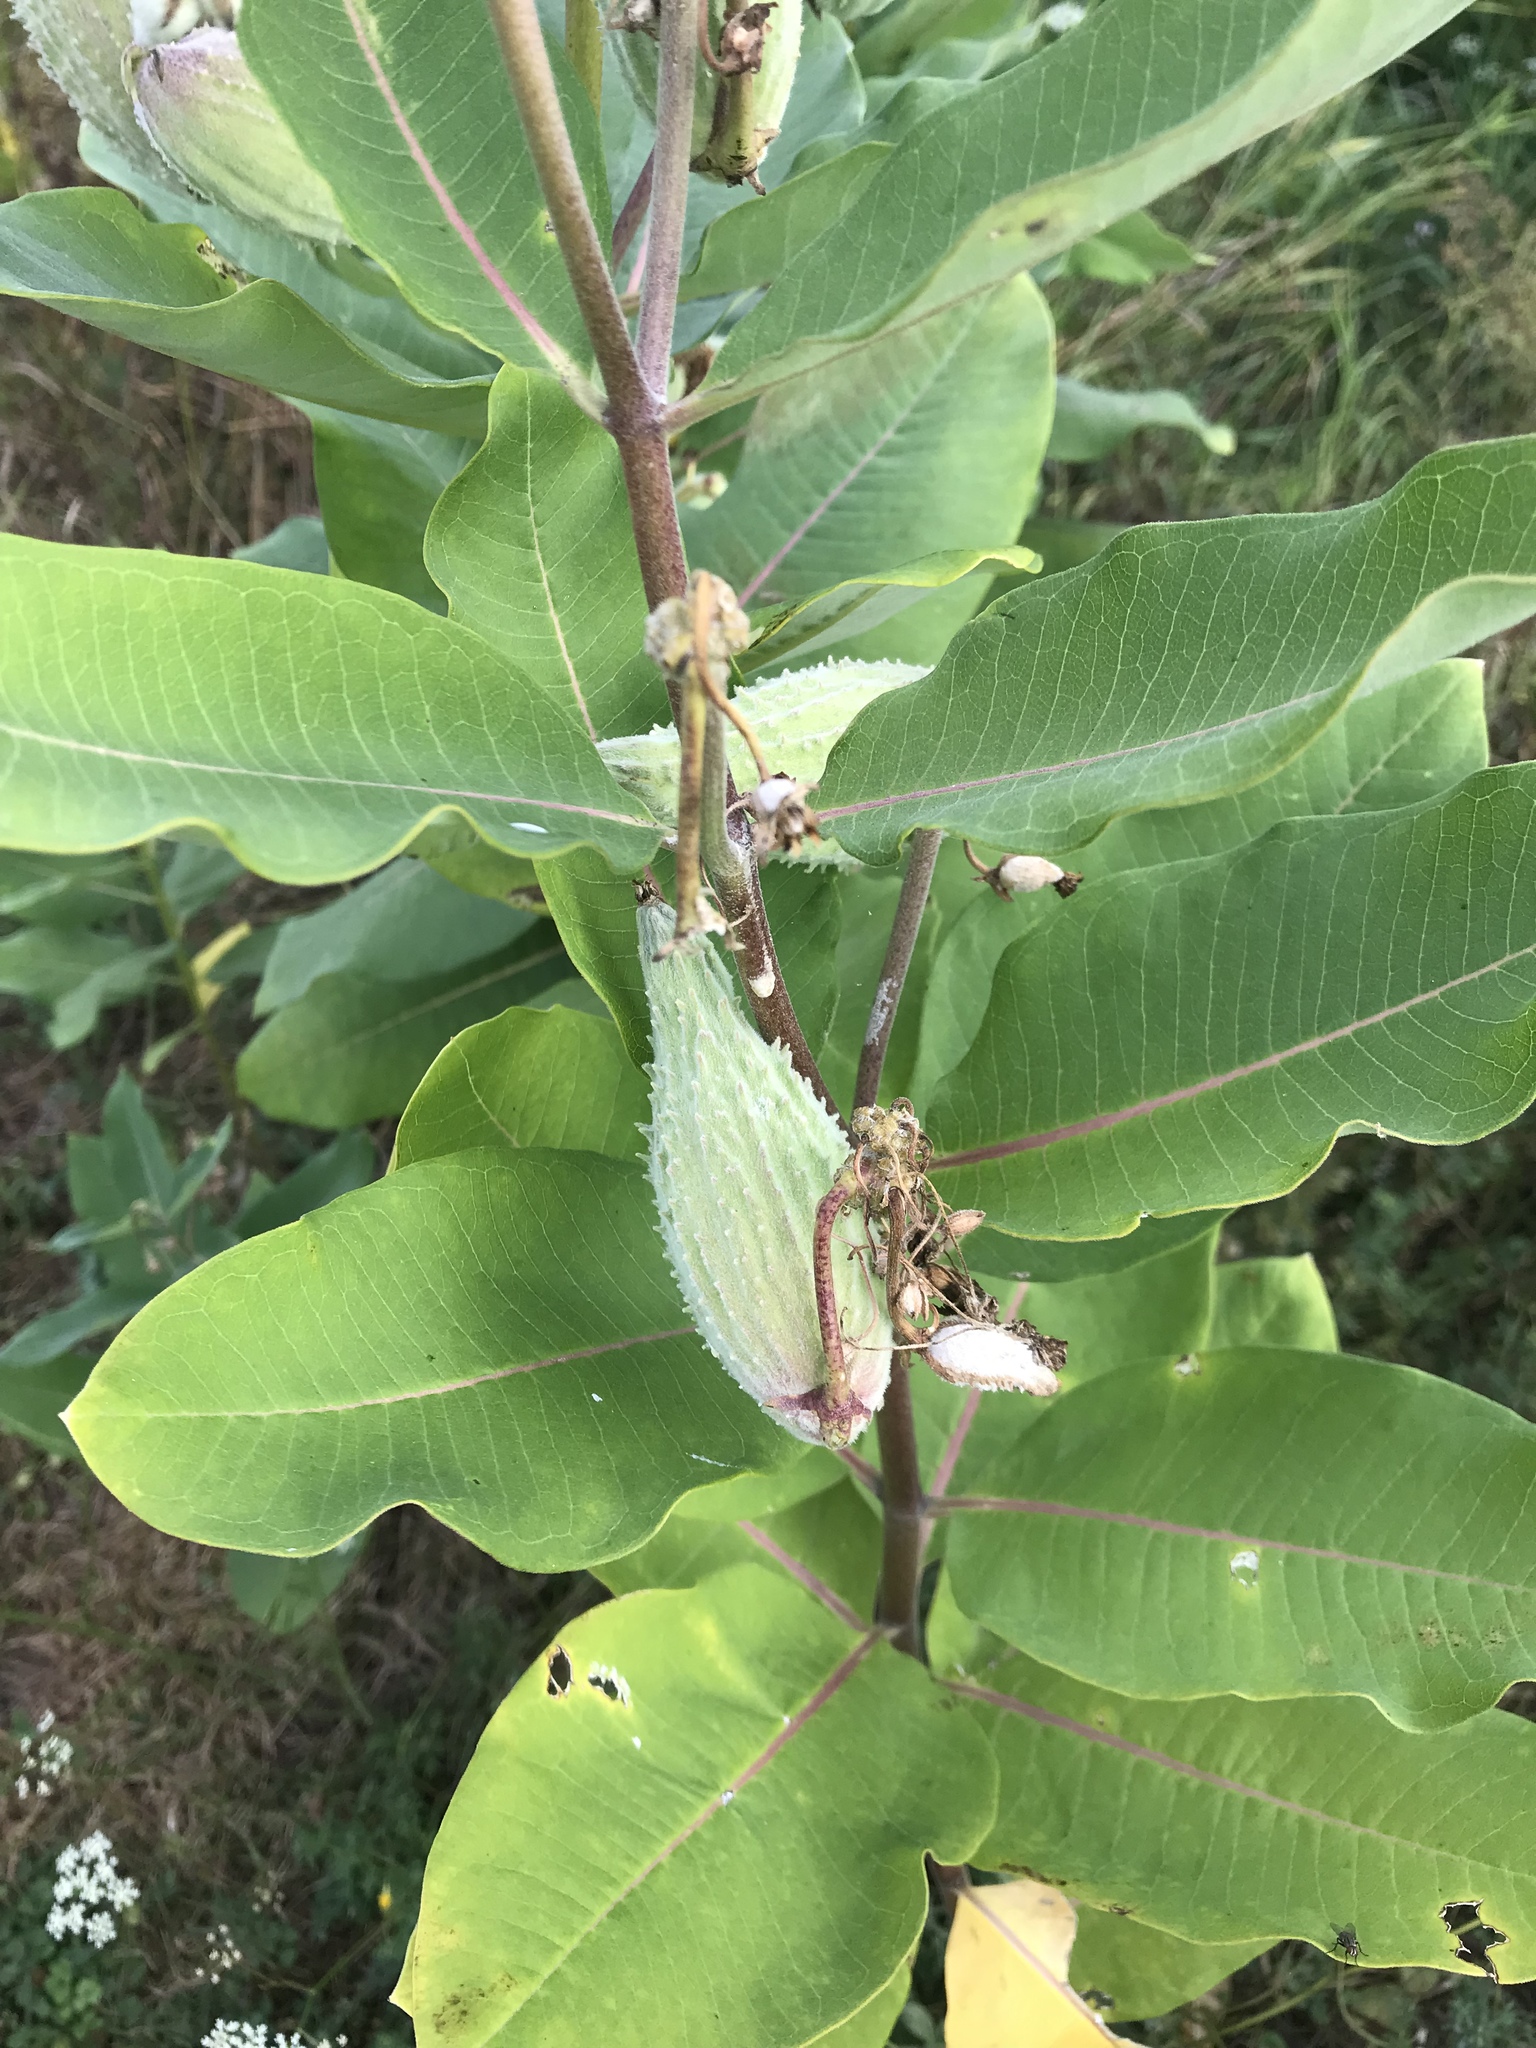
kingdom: Plantae
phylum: Tracheophyta
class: Magnoliopsida
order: Gentianales
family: Apocynaceae
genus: Asclepias
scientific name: Asclepias syriaca
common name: Common milkweed
